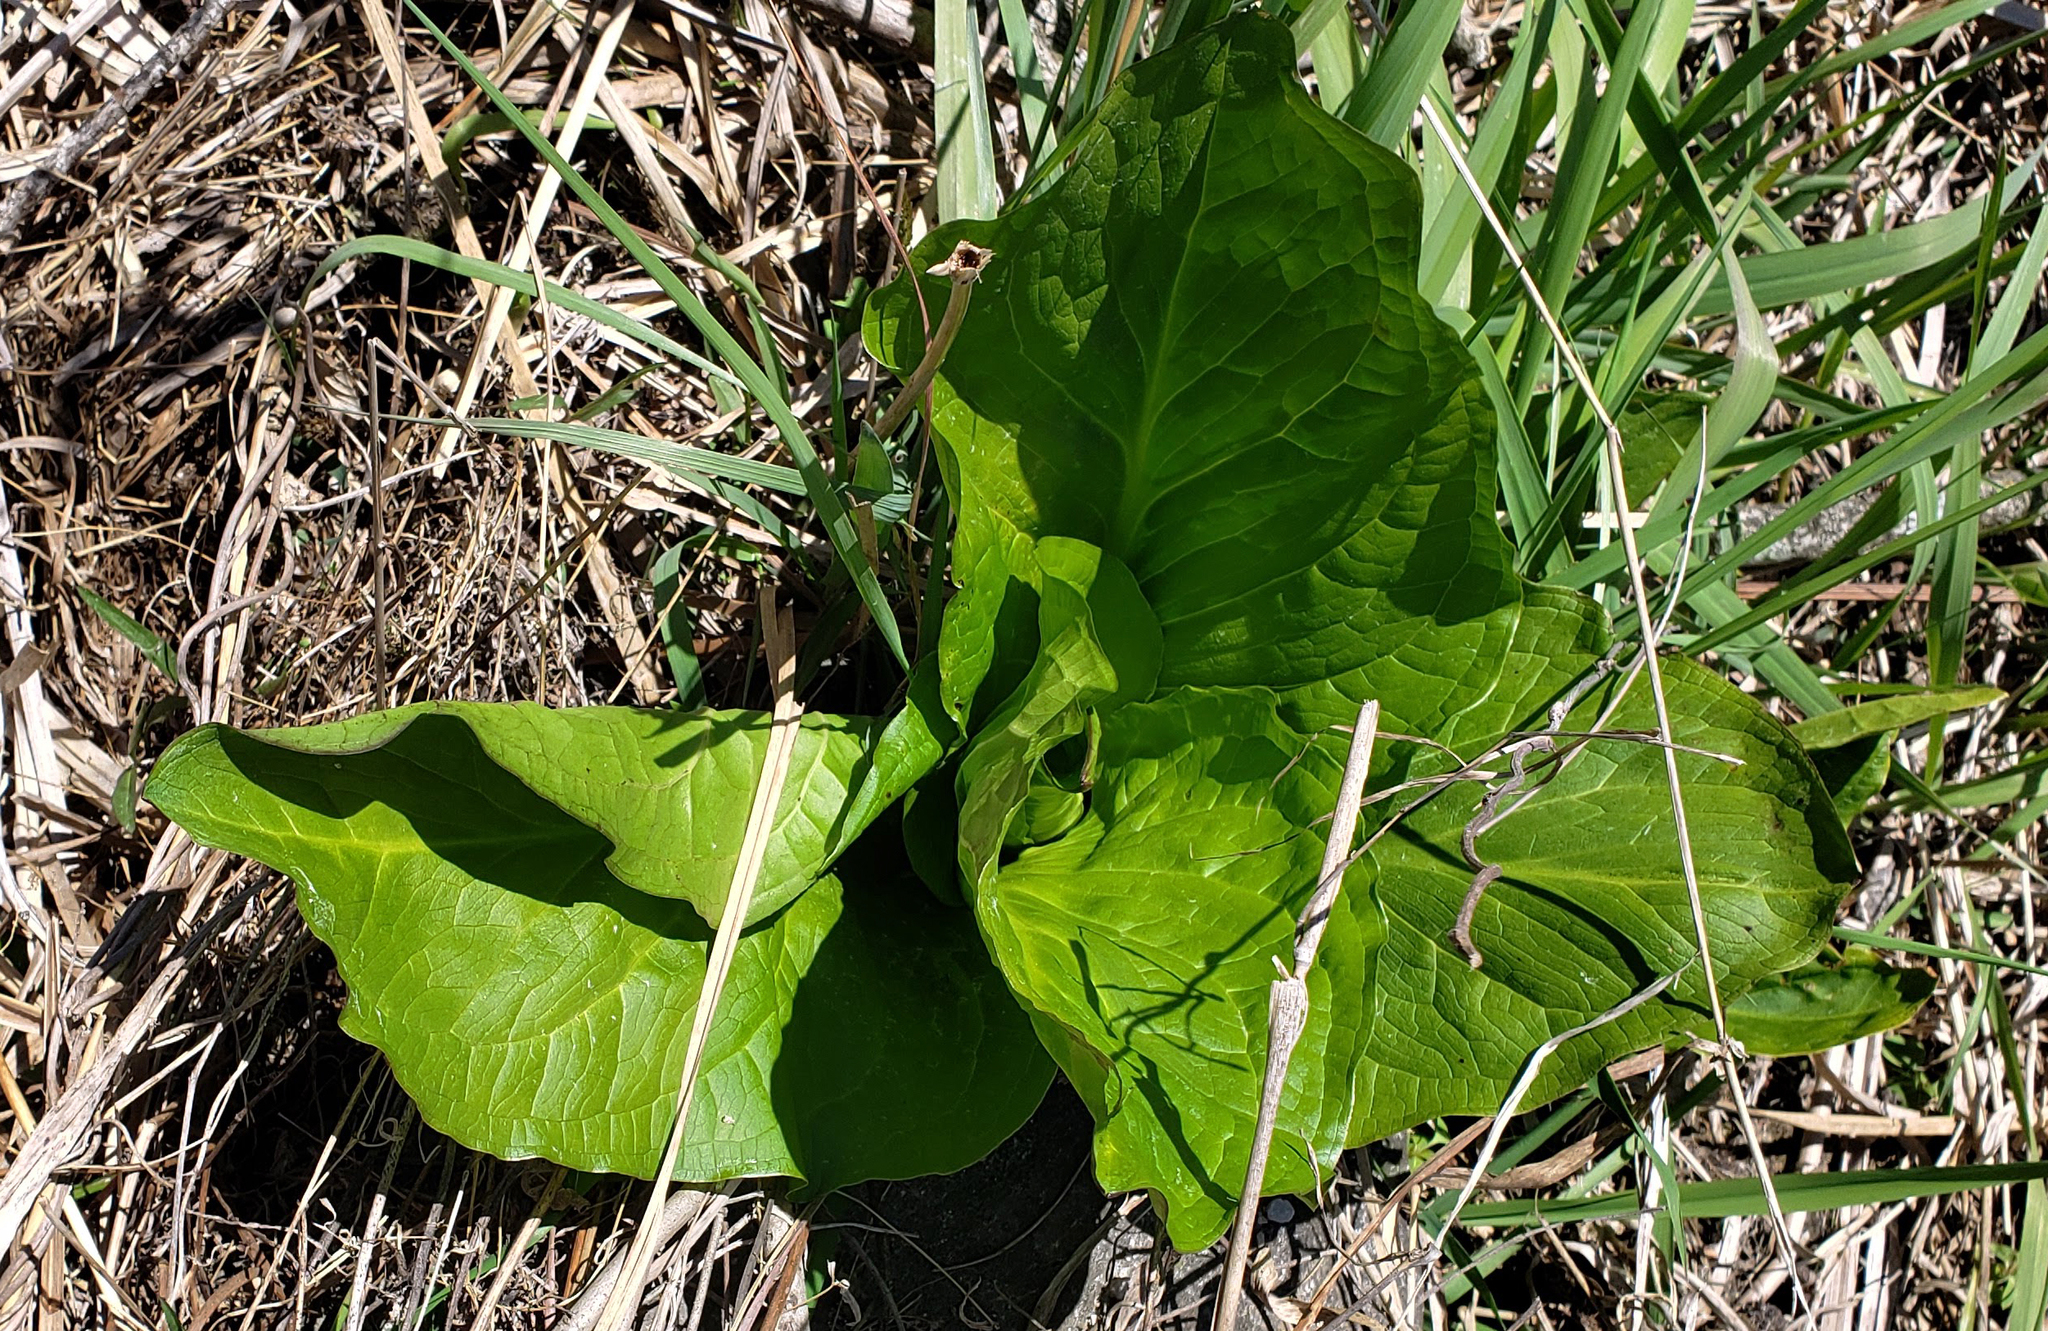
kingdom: Plantae
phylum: Tracheophyta
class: Liliopsida
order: Alismatales
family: Araceae
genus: Symplocarpus
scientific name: Symplocarpus foetidus
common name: Eastern skunk cabbage
